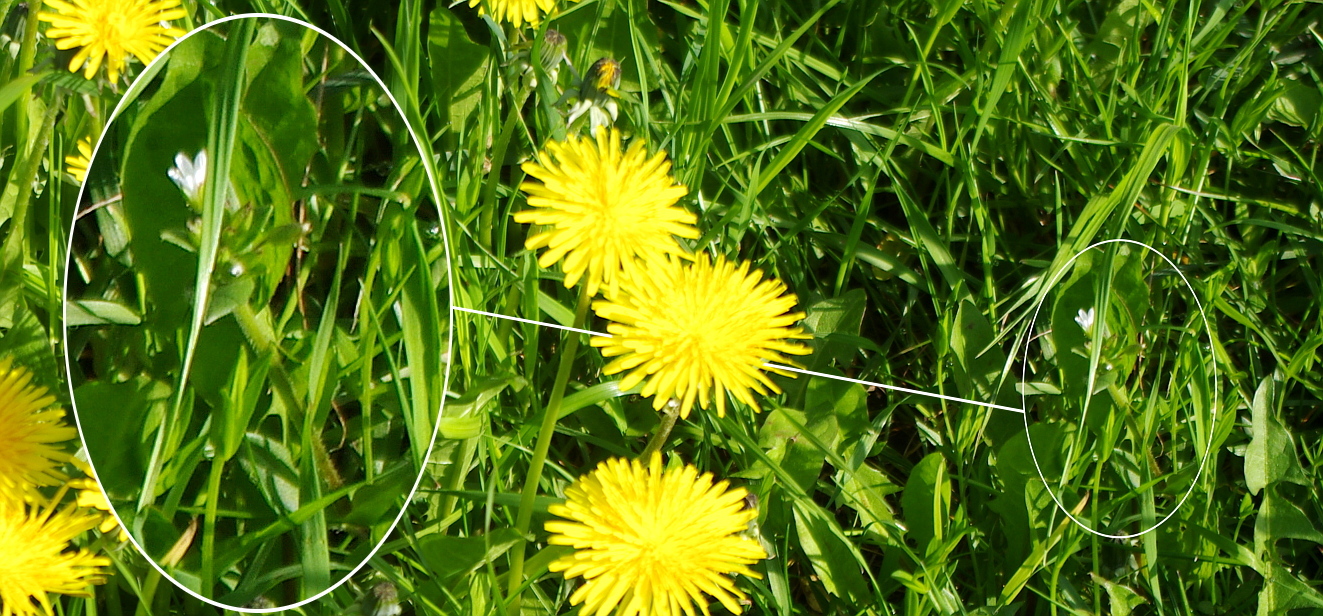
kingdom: Plantae
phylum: Tracheophyta
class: Magnoliopsida
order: Caryophyllales
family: Caryophyllaceae
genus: Cerastium
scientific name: Cerastium holosteoides
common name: Big chickweed
